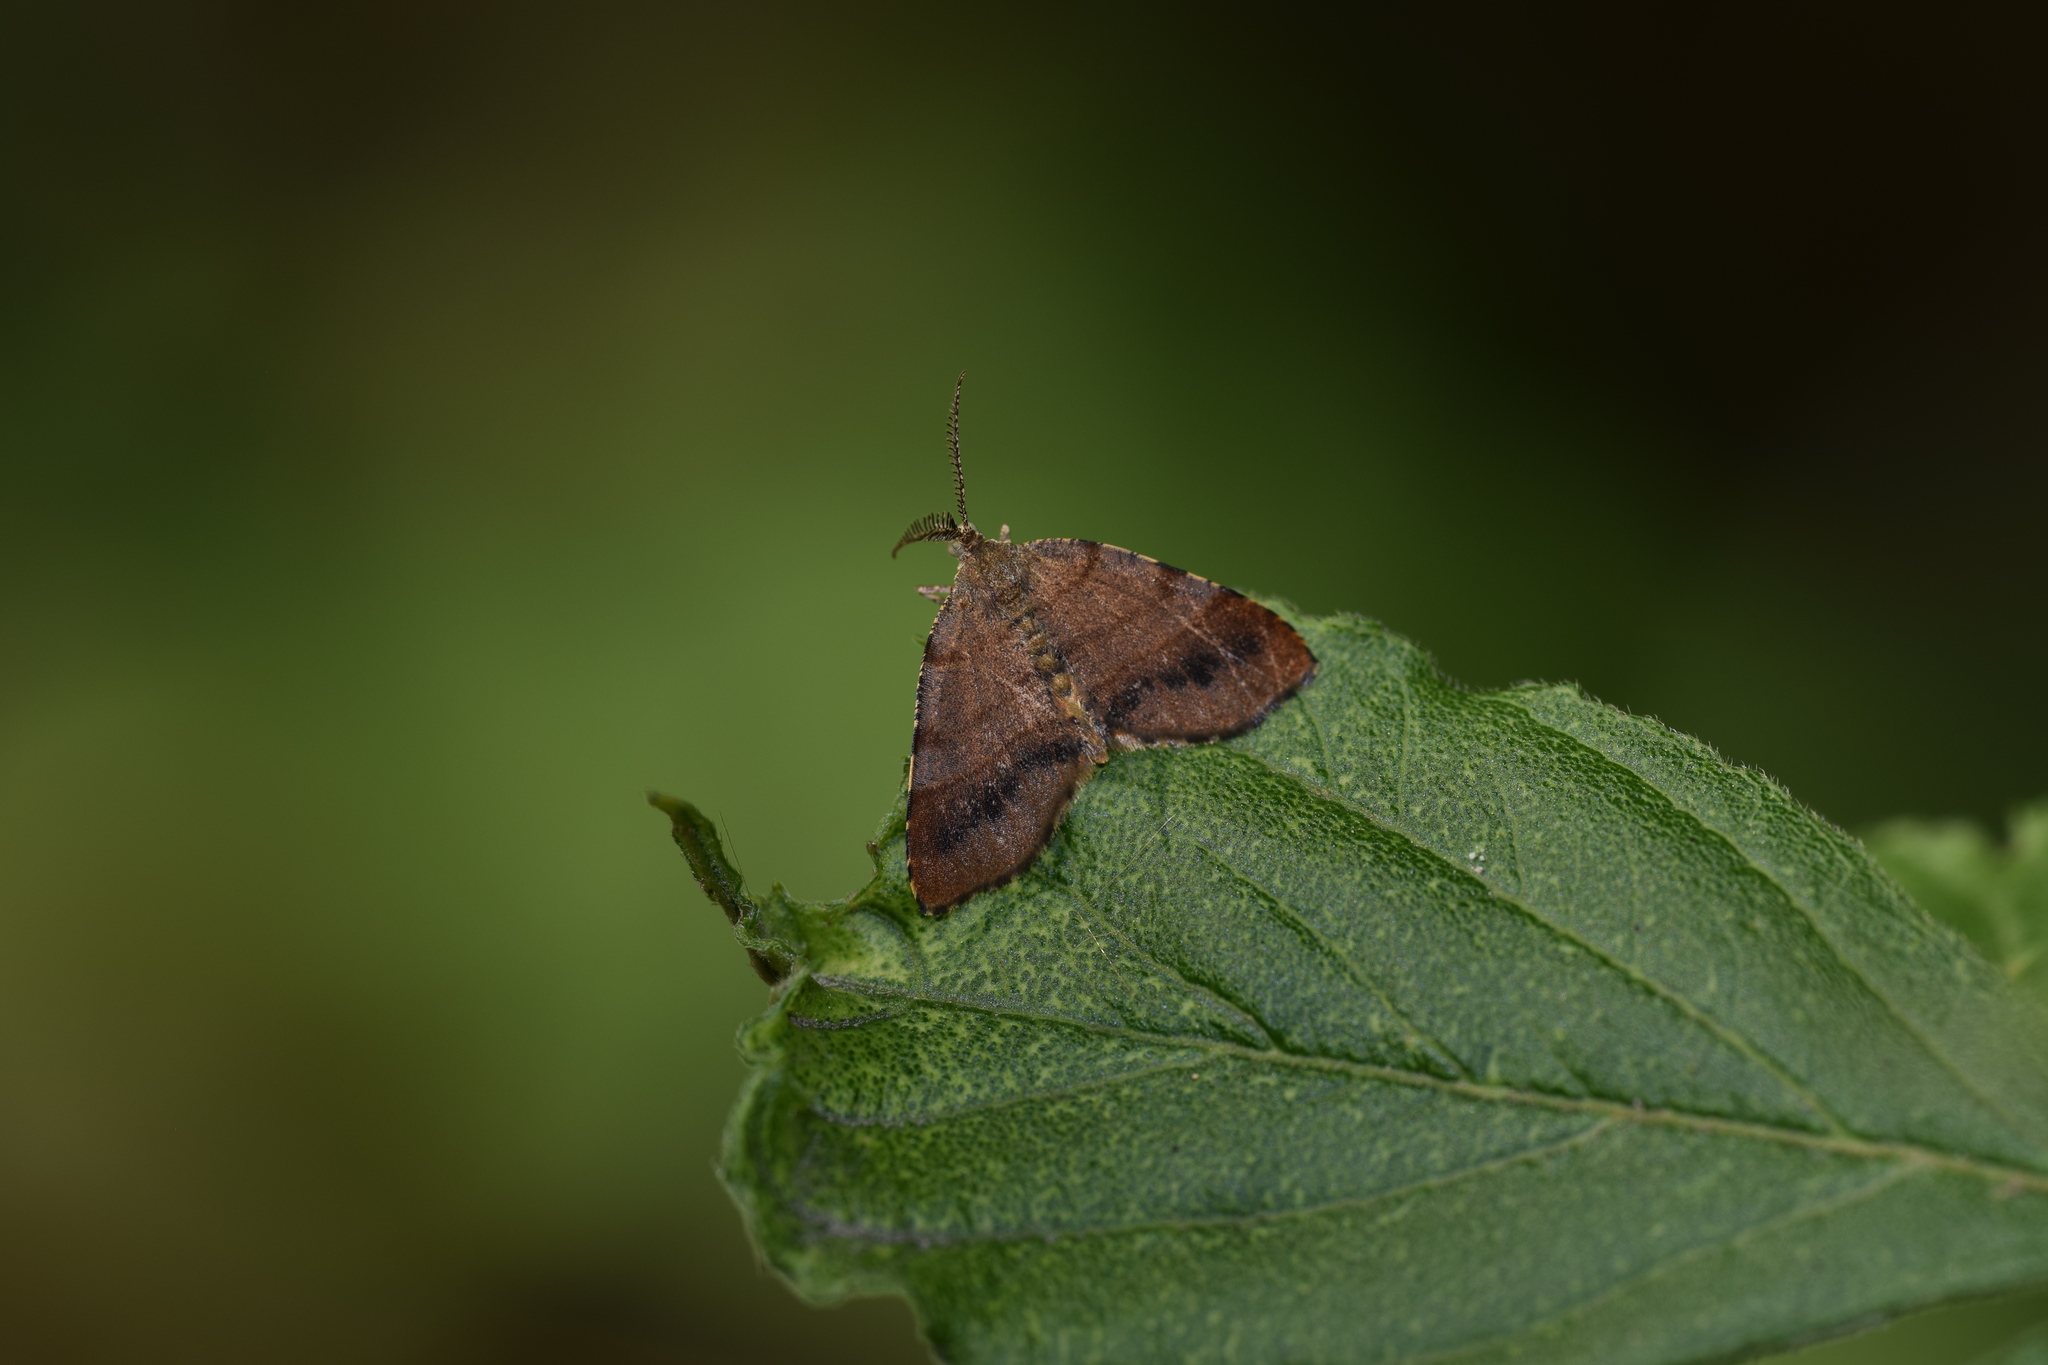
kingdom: Animalia
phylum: Arthropoda
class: Insecta
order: Lepidoptera
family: Geometridae
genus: Mellilla
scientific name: Mellilla xanthometata
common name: Orange wing moth
